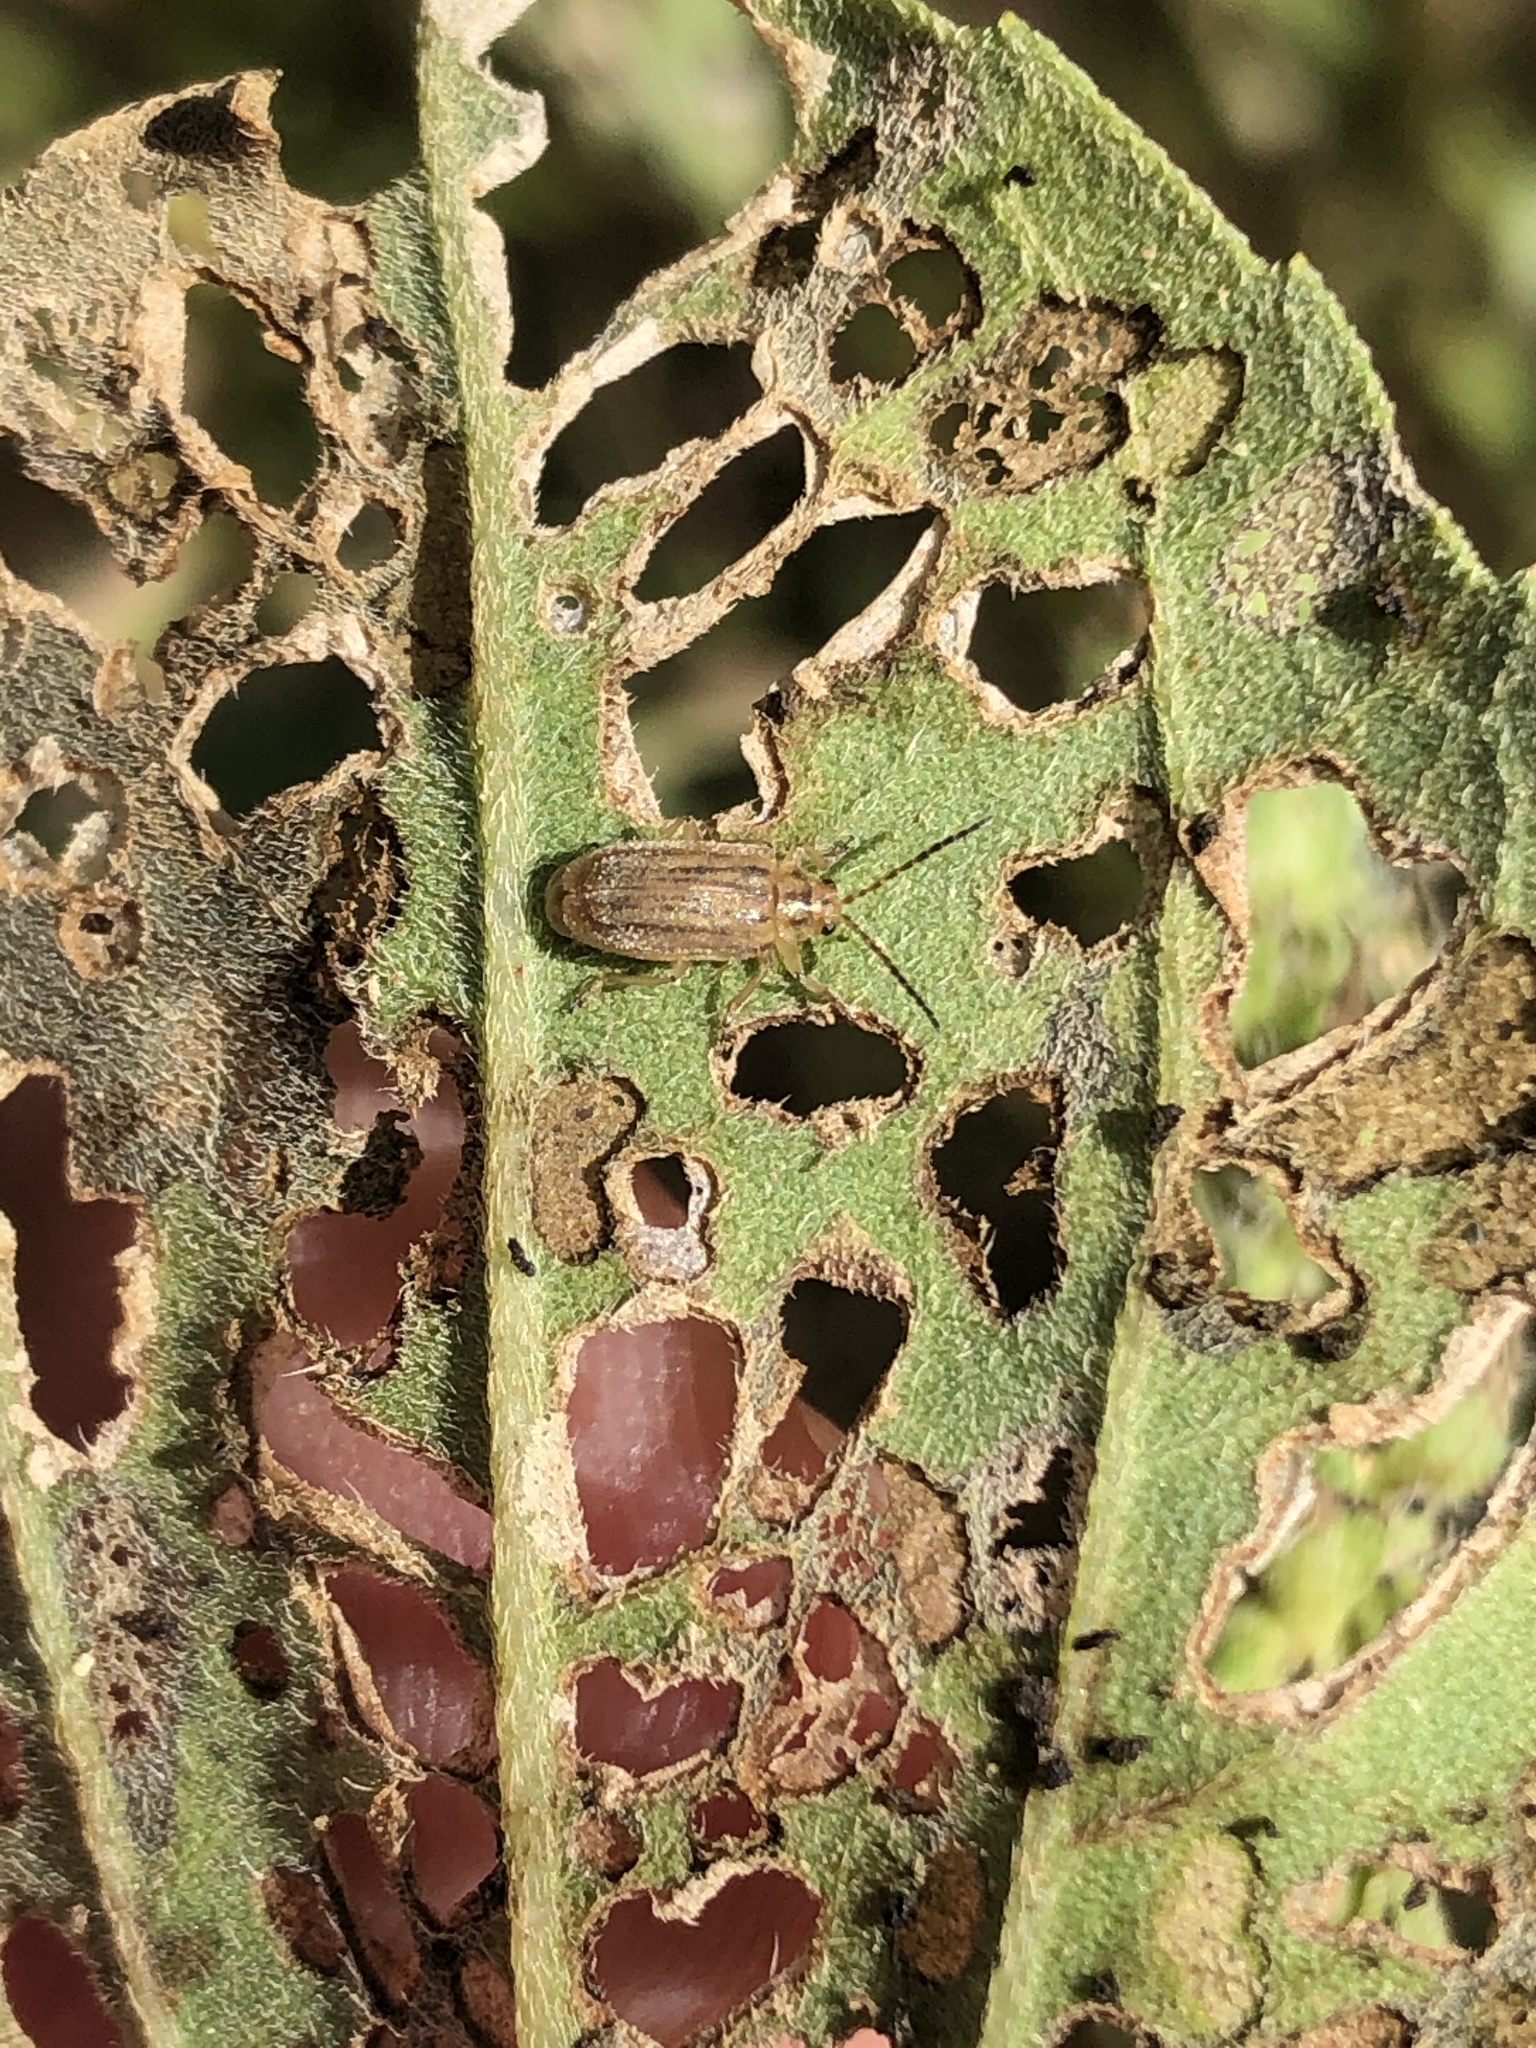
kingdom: Animalia
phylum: Arthropoda
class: Insecta
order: Coleoptera
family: Chrysomelidae
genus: Ophraella
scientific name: Ophraella communa
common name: Ragweed leaf beetle
